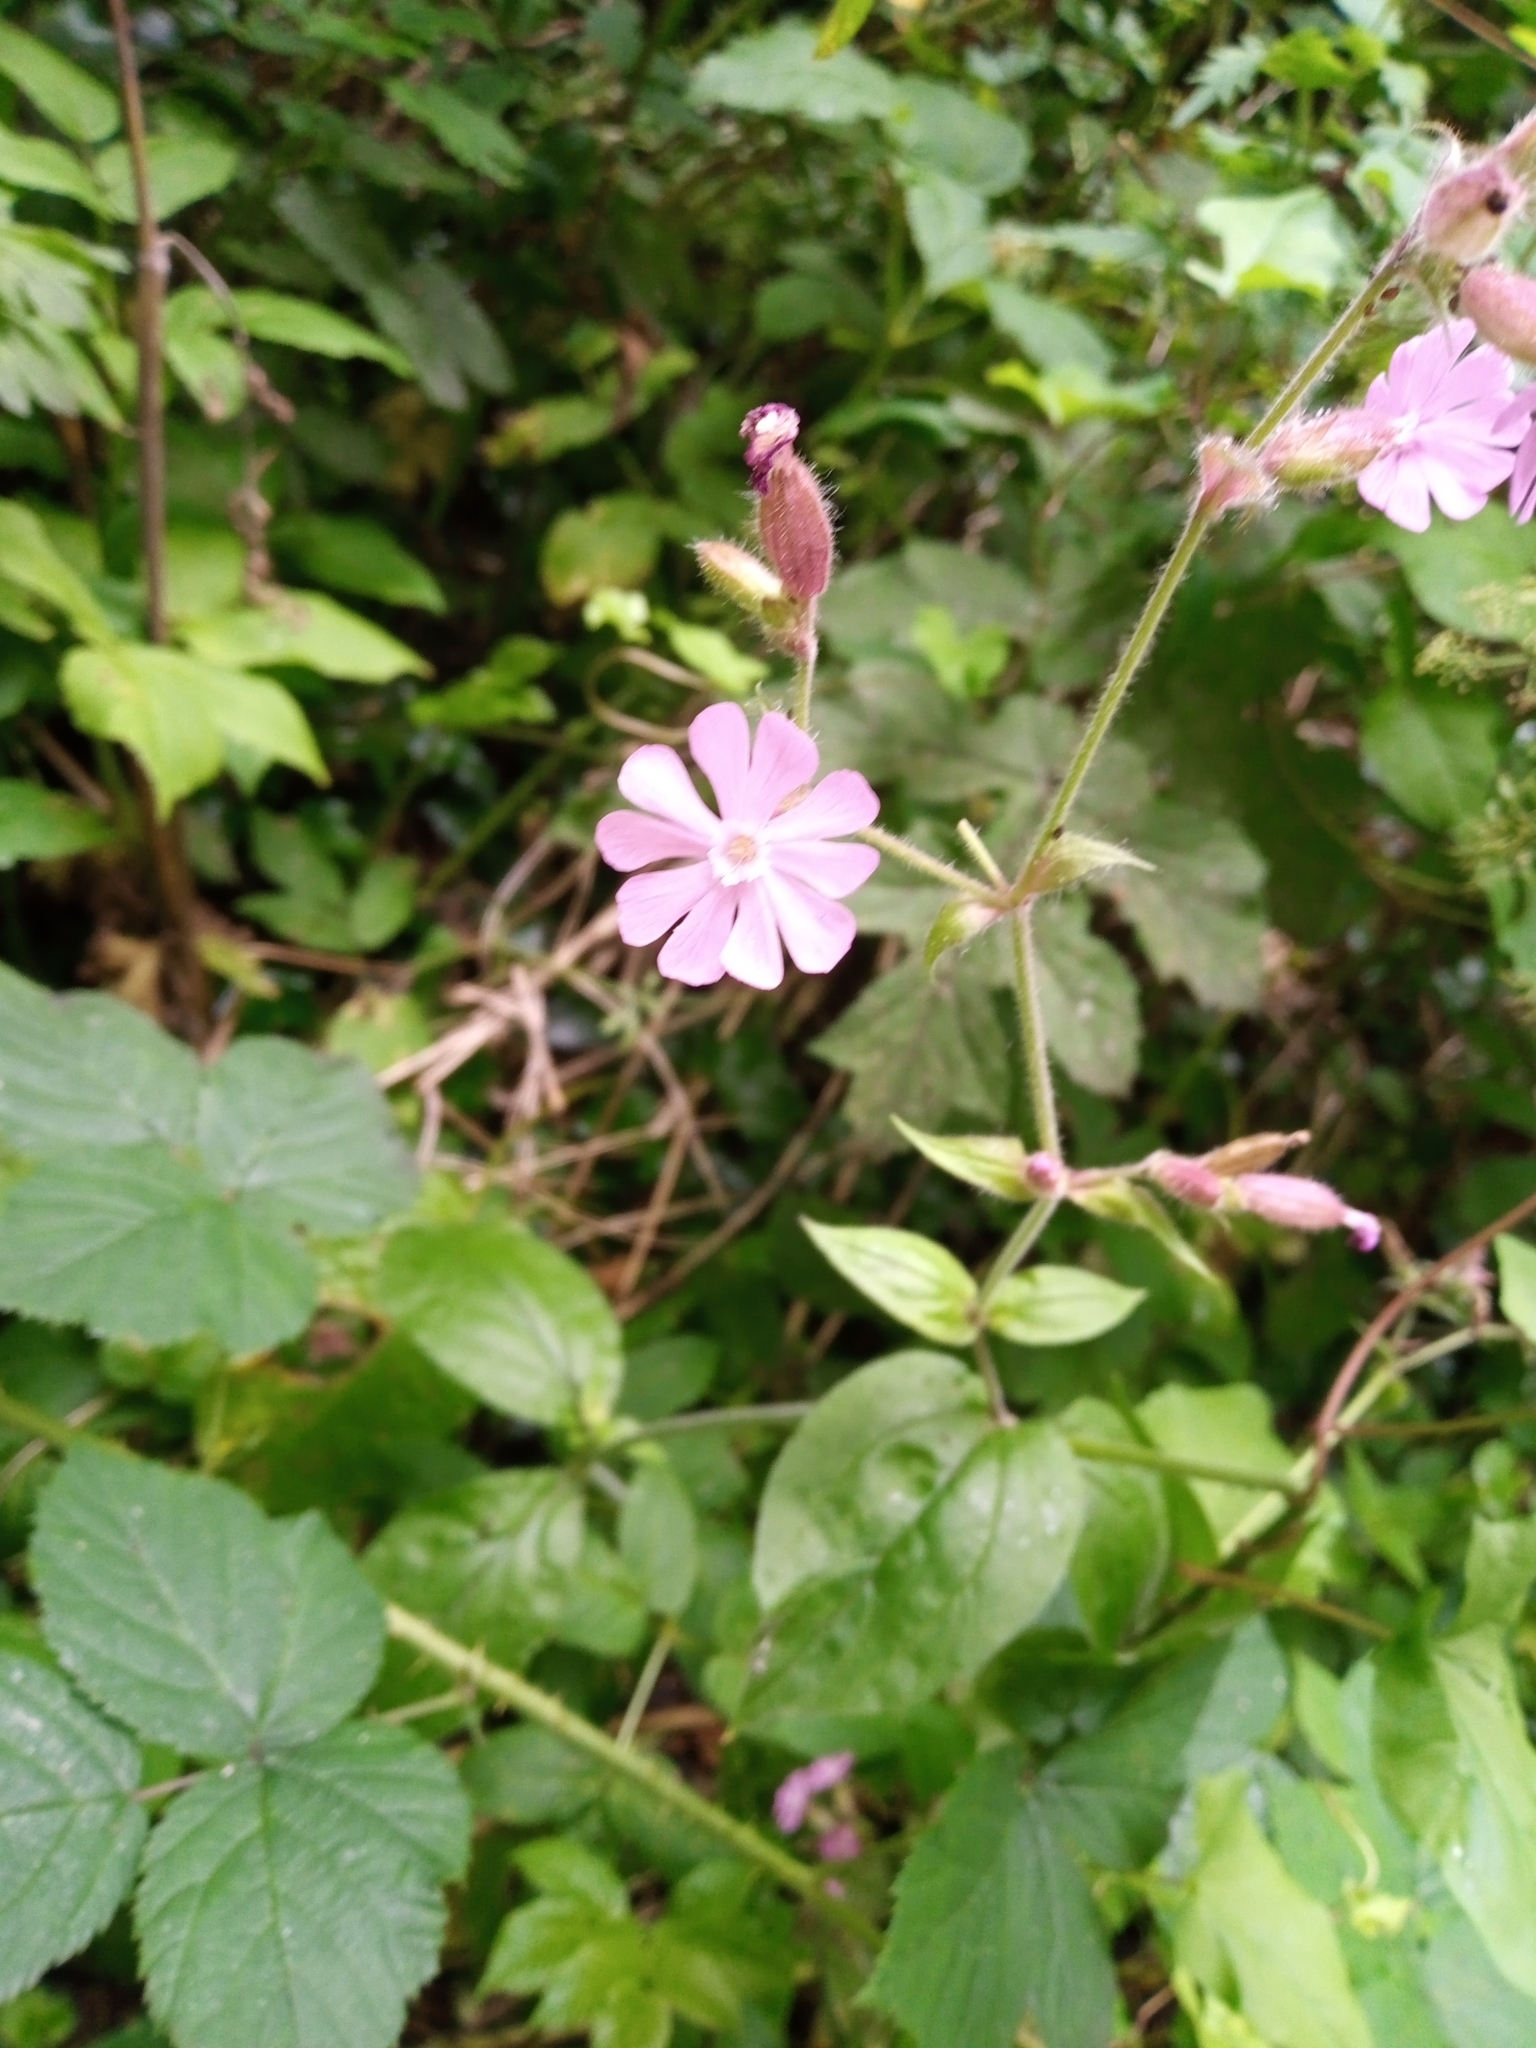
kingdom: Plantae
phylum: Tracheophyta
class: Magnoliopsida
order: Caryophyllales
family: Caryophyllaceae
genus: Silene
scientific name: Silene dioica
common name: Red campion
